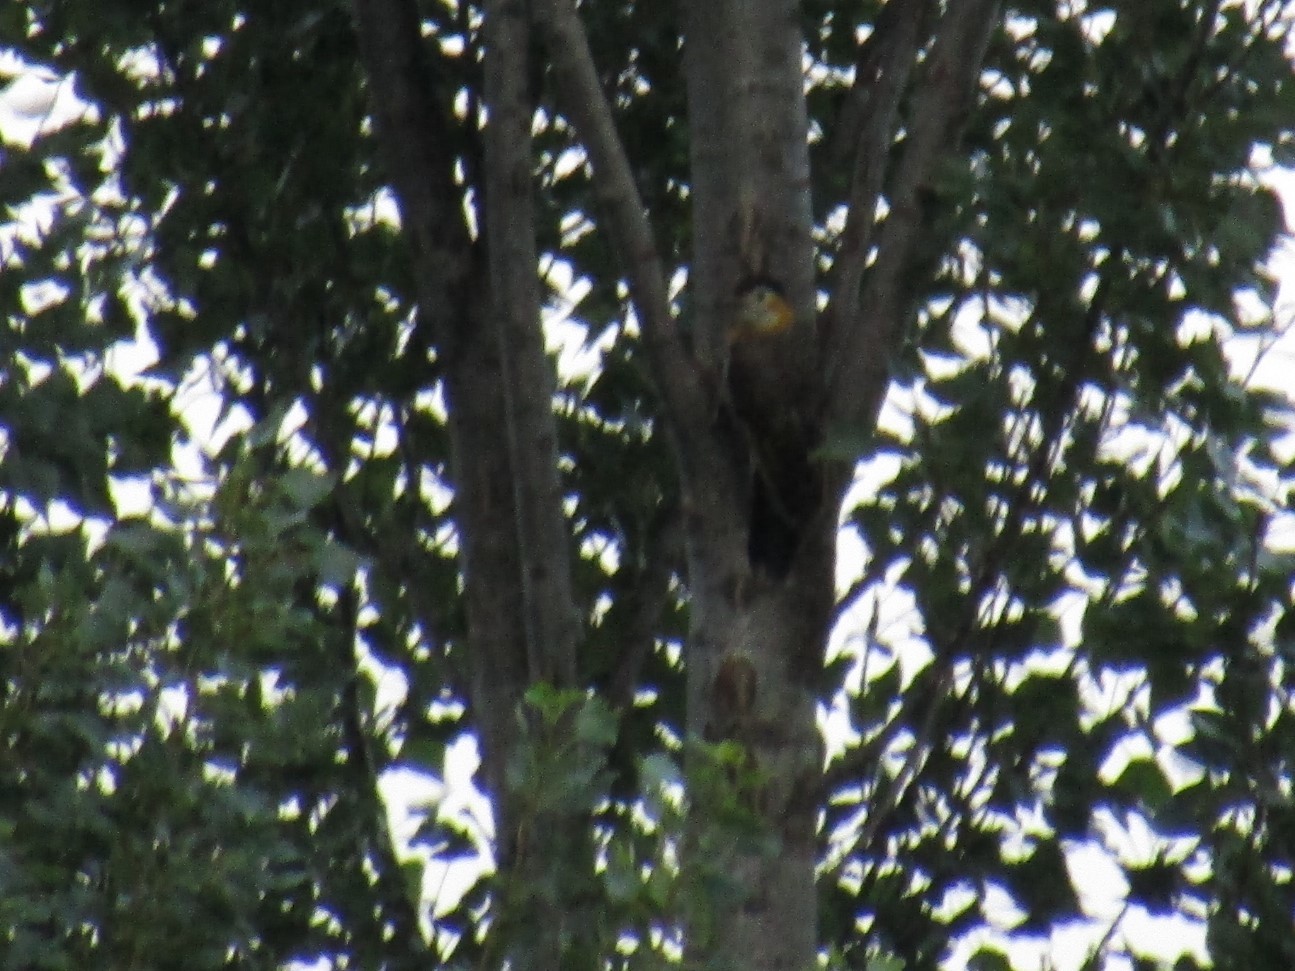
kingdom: Animalia
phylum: Chordata
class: Aves
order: Piciformes
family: Picidae
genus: Colaptes
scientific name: Colaptes campestris
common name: Campo flicker
